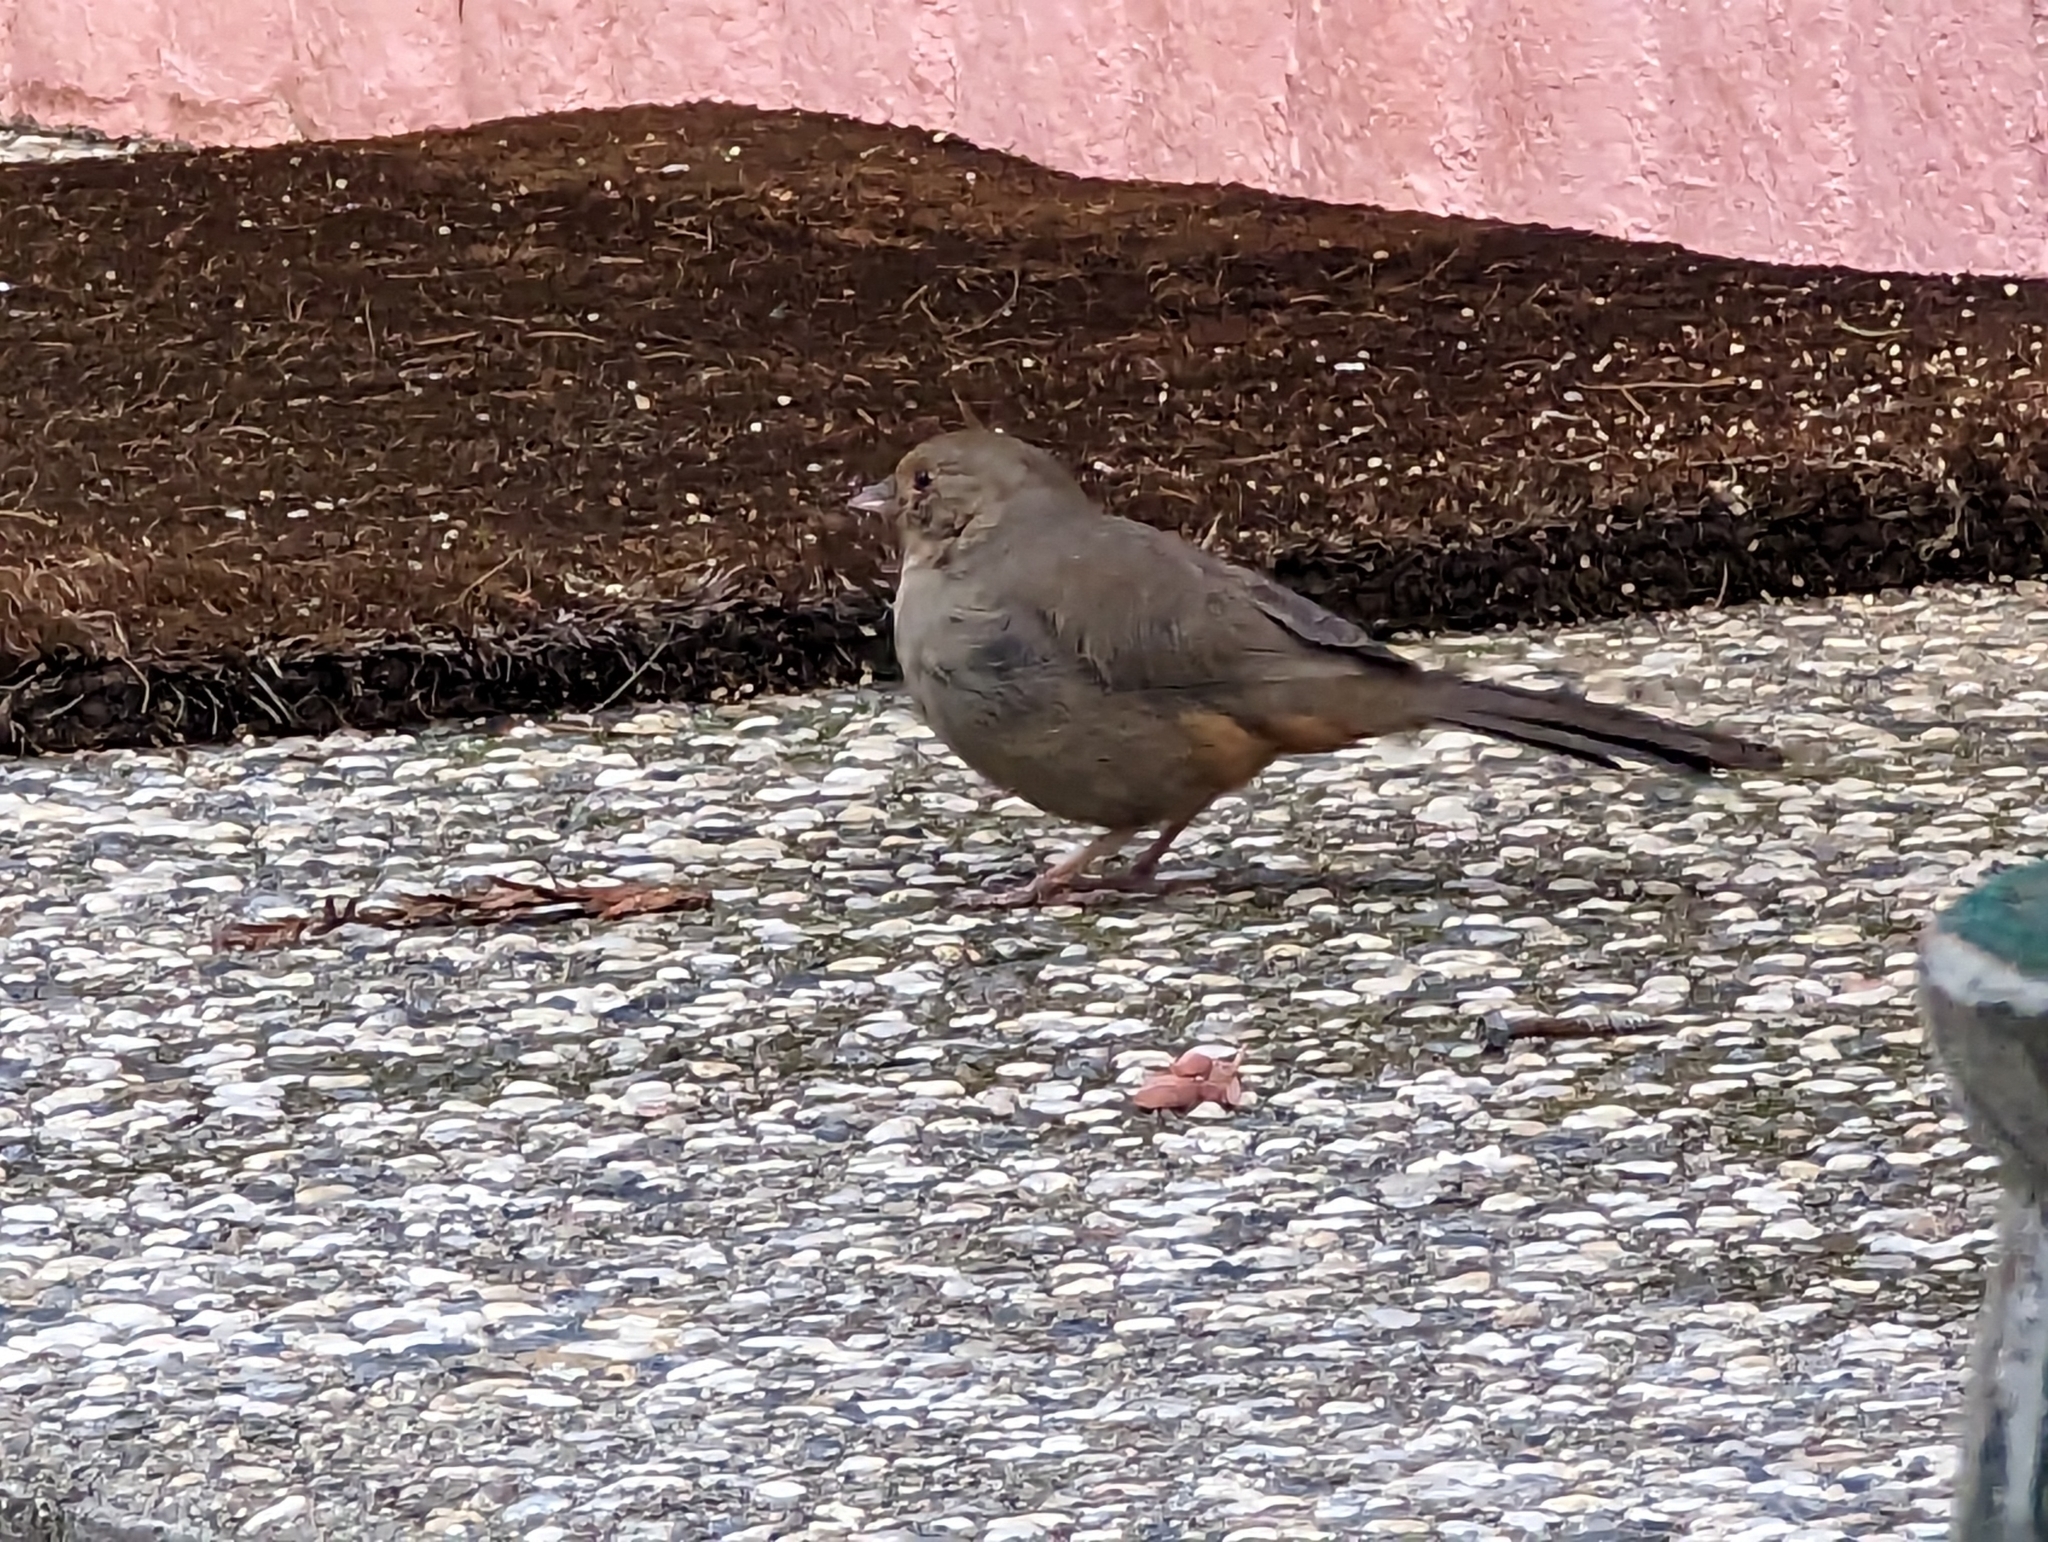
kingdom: Animalia
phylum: Chordata
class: Aves
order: Passeriformes
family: Passerellidae
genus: Melozone
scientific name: Melozone crissalis
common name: California towhee
